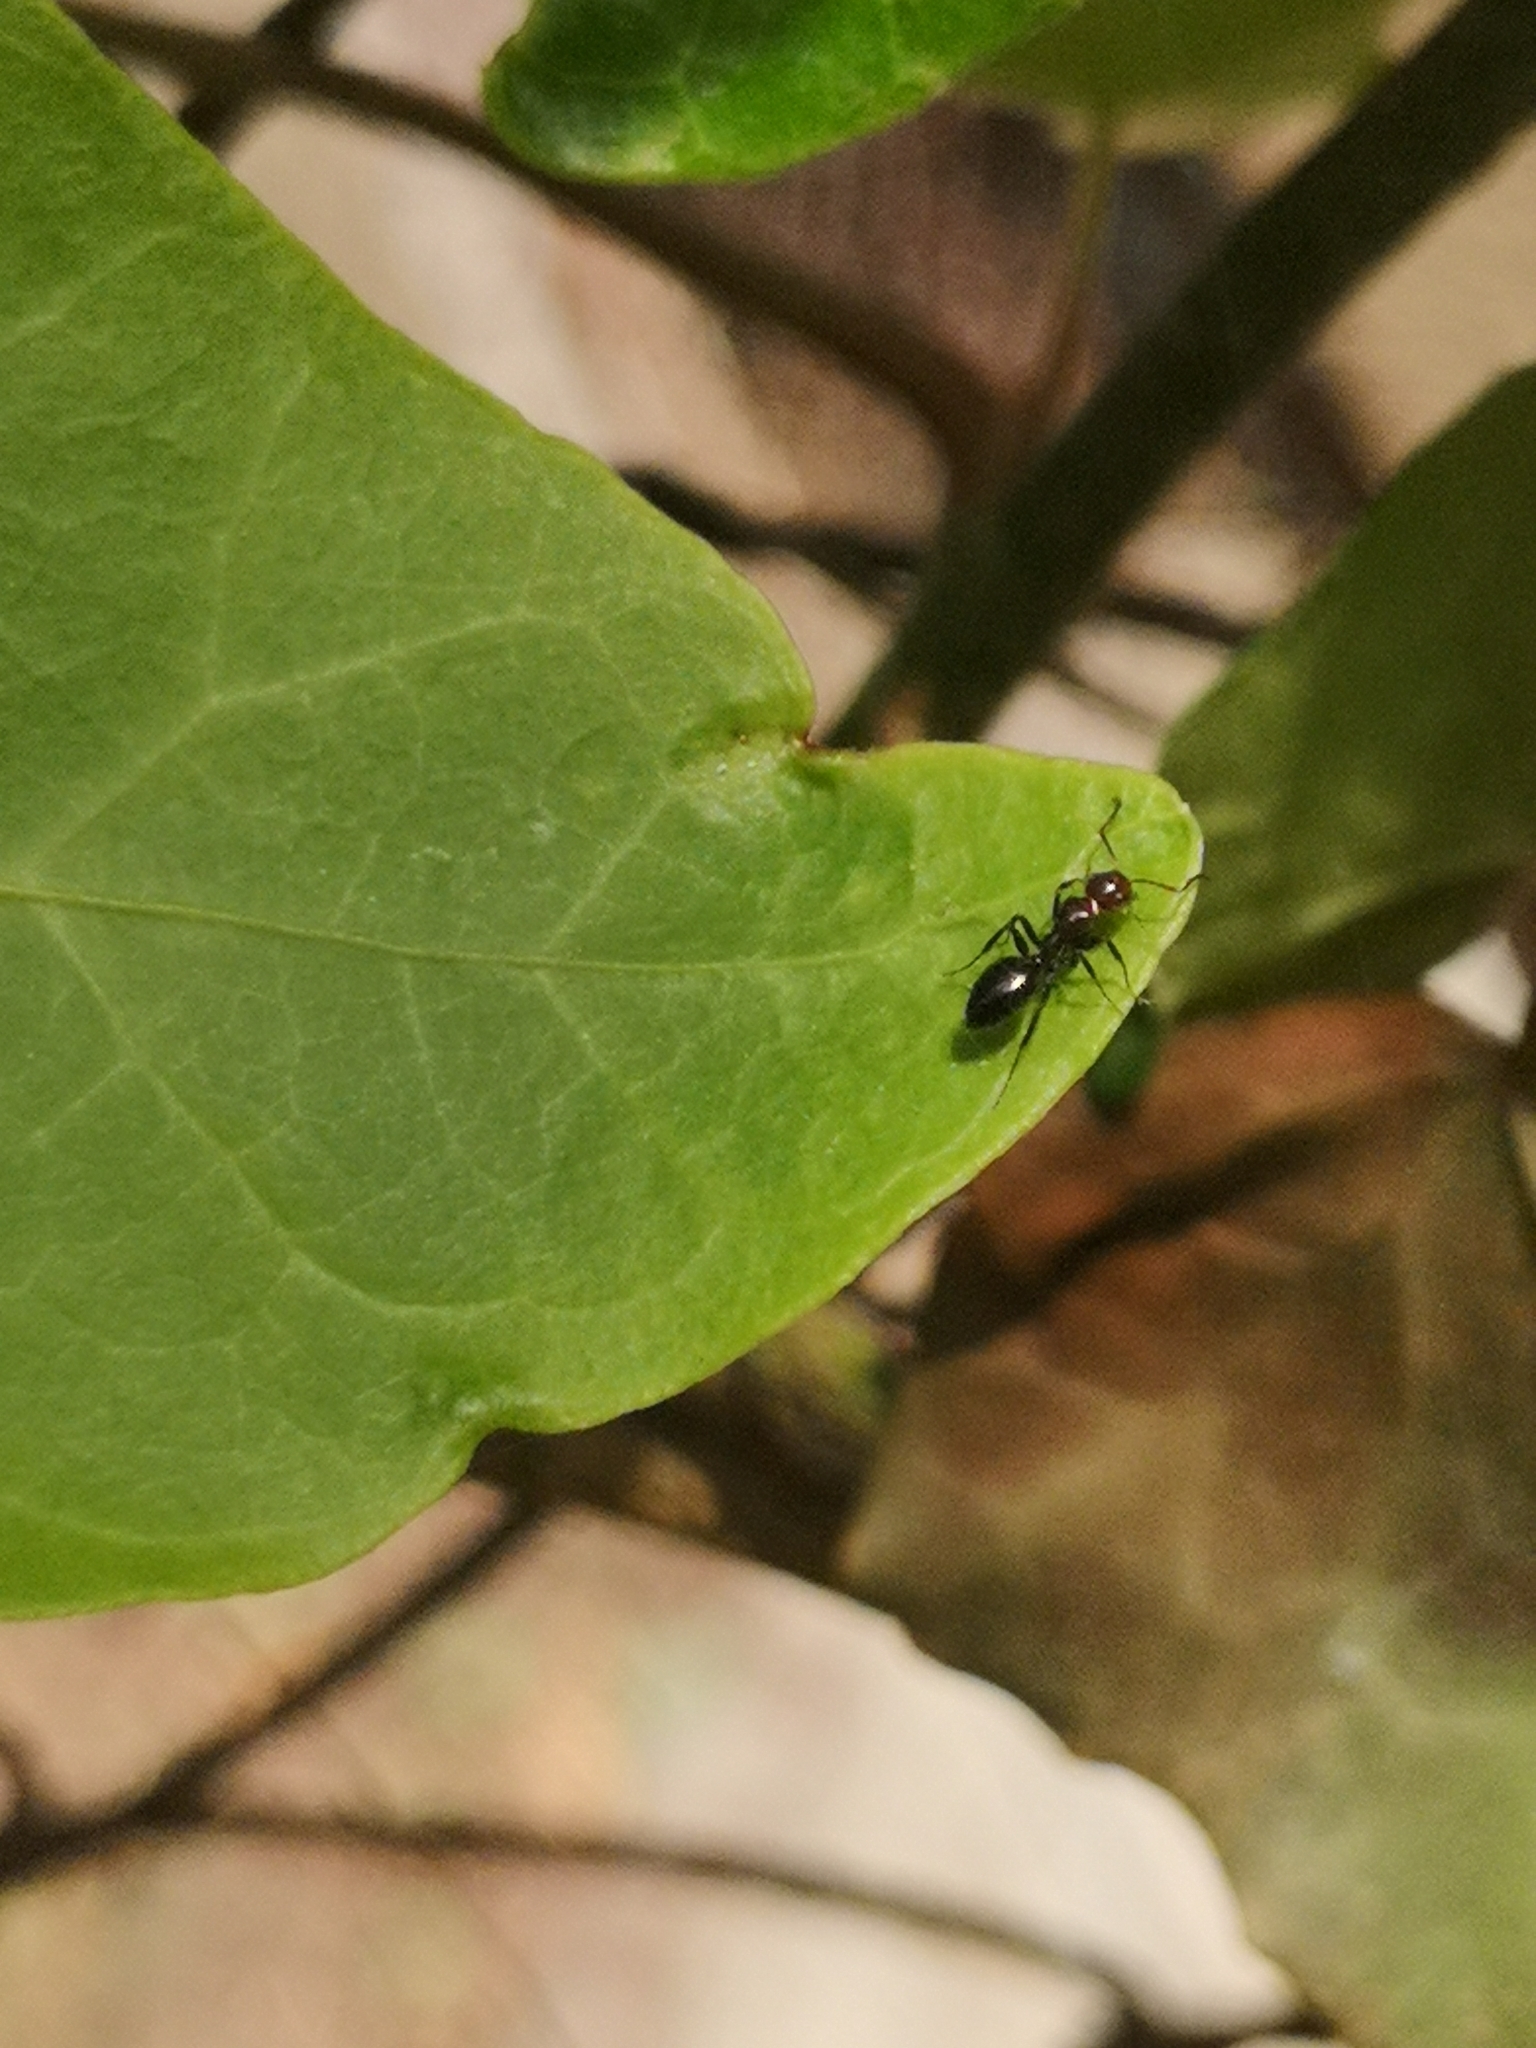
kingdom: Animalia
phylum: Arthropoda
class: Insecta
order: Hymenoptera
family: Formicidae
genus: Camponotus
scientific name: Camponotus lateralis
